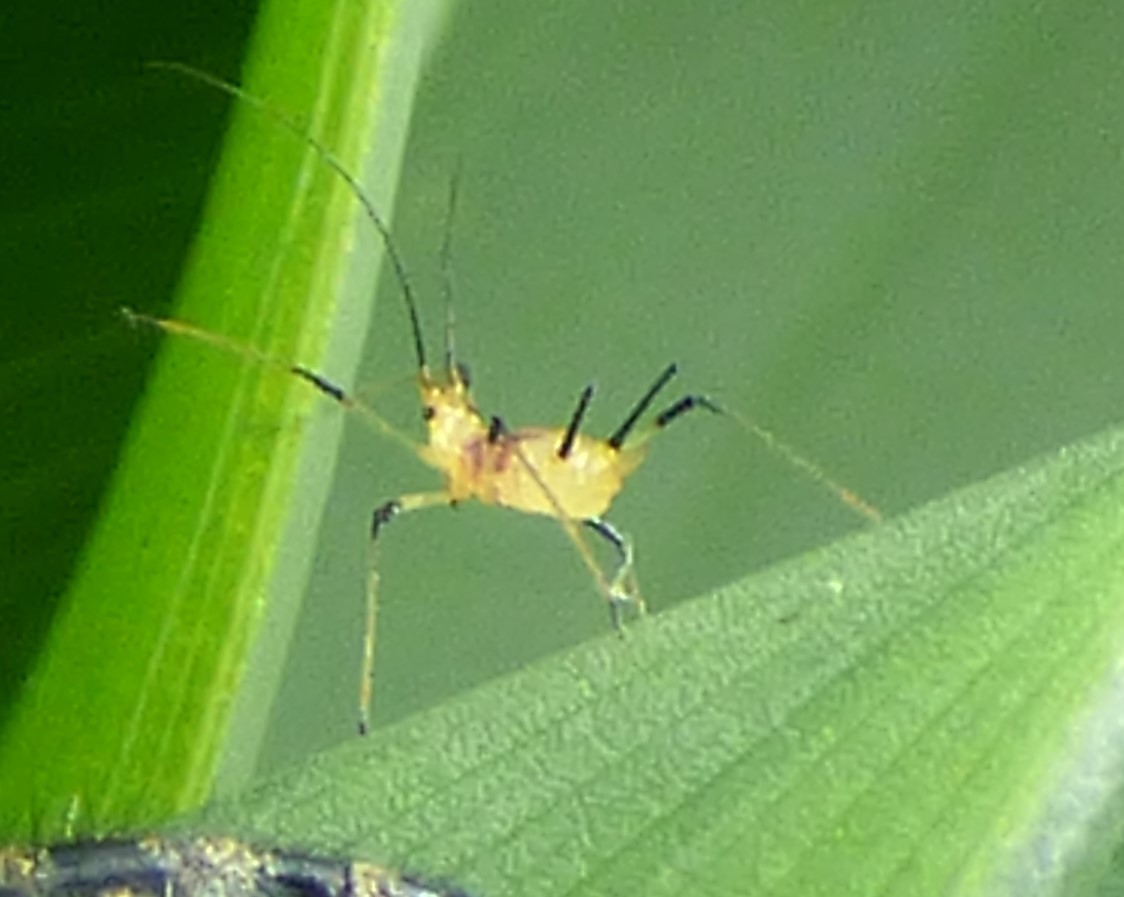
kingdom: Animalia
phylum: Arthropoda
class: Insecta
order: Hemiptera
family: Aphididae
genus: Macrosiphum
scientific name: Macrosiphum lilii
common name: Purplespotted lily aphid
